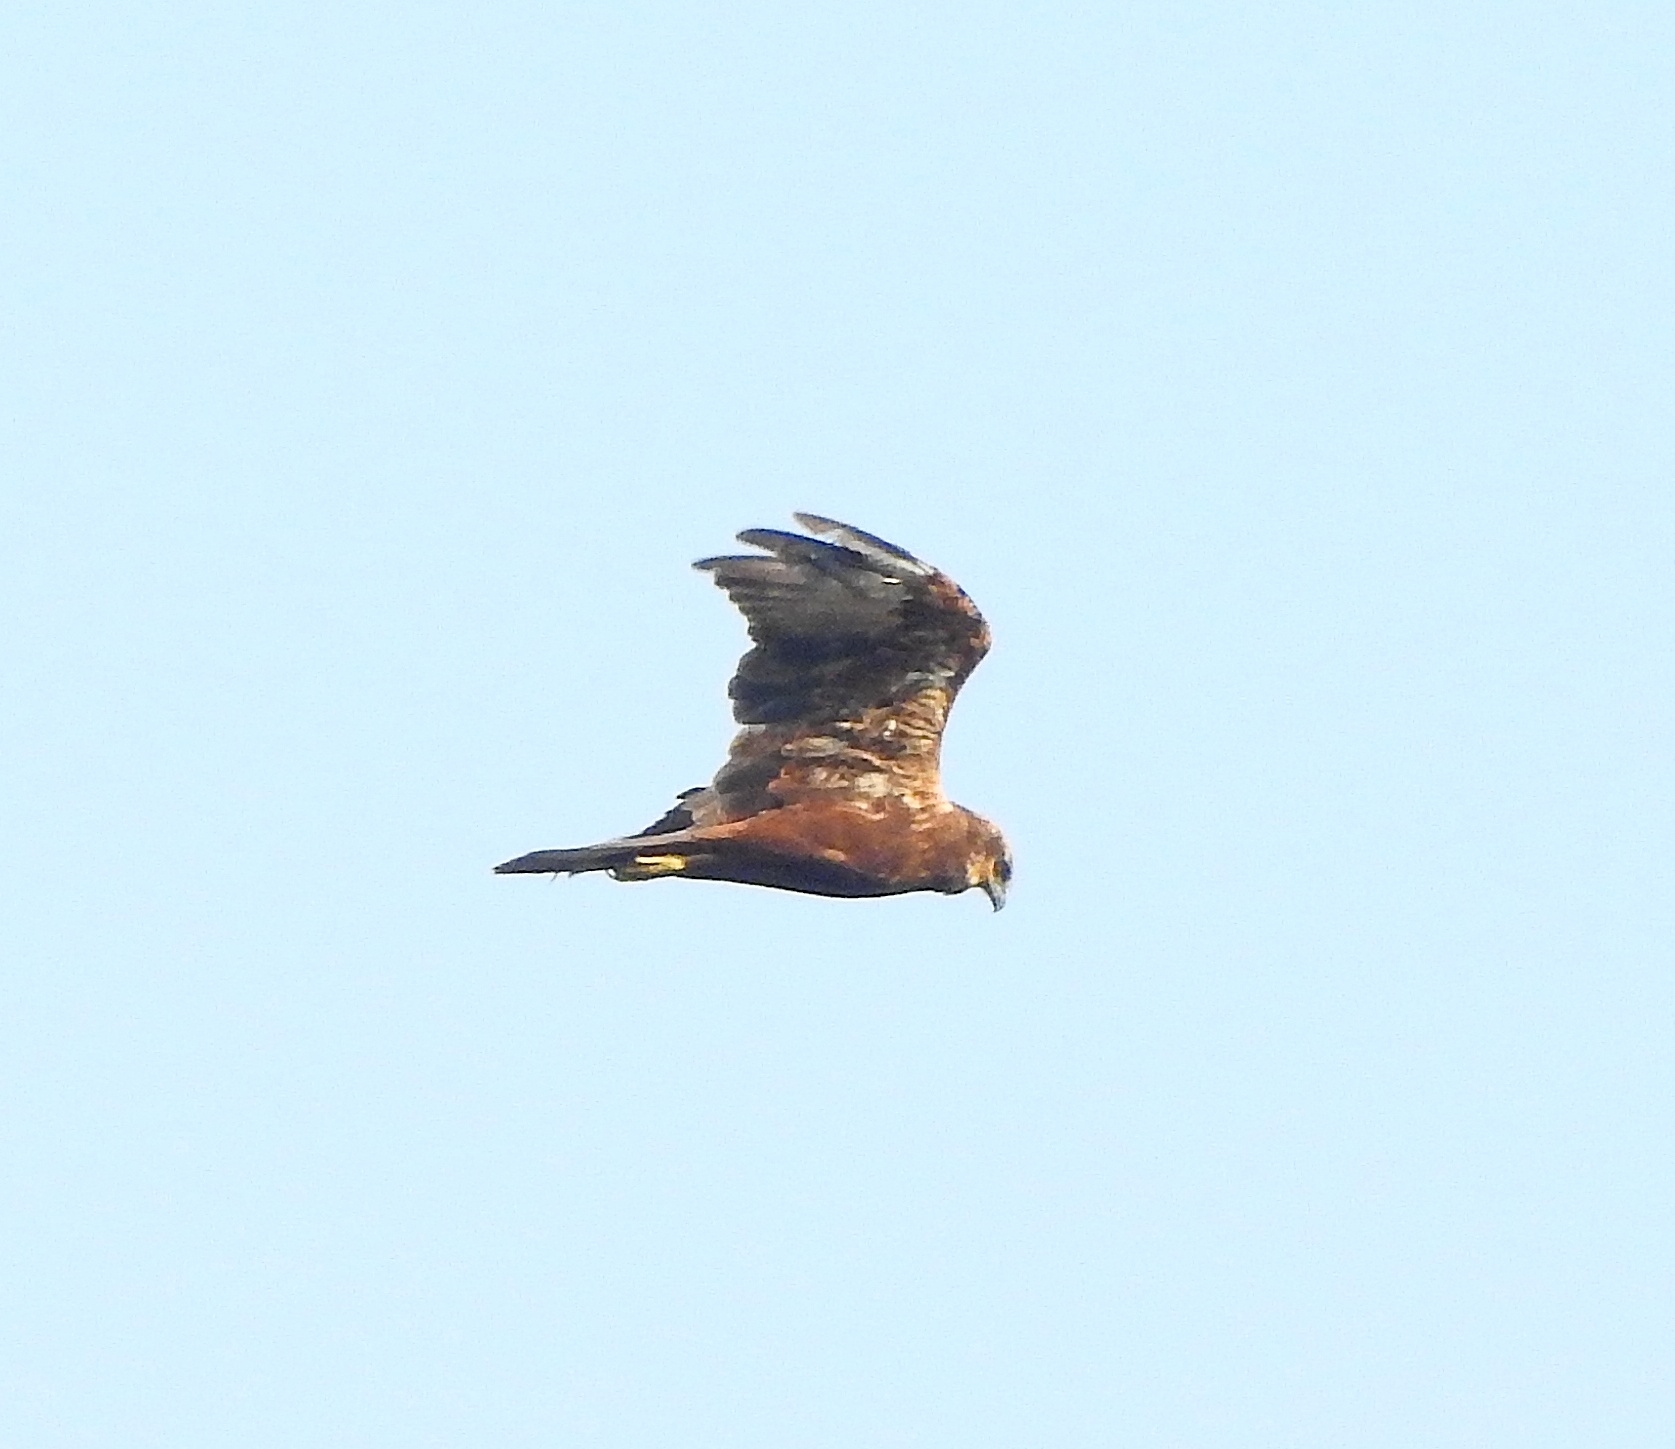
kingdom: Animalia
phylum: Chordata
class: Aves
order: Accipitriformes
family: Accipitridae
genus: Circus
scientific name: Circus aeruginosus
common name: Western marsh harrier
